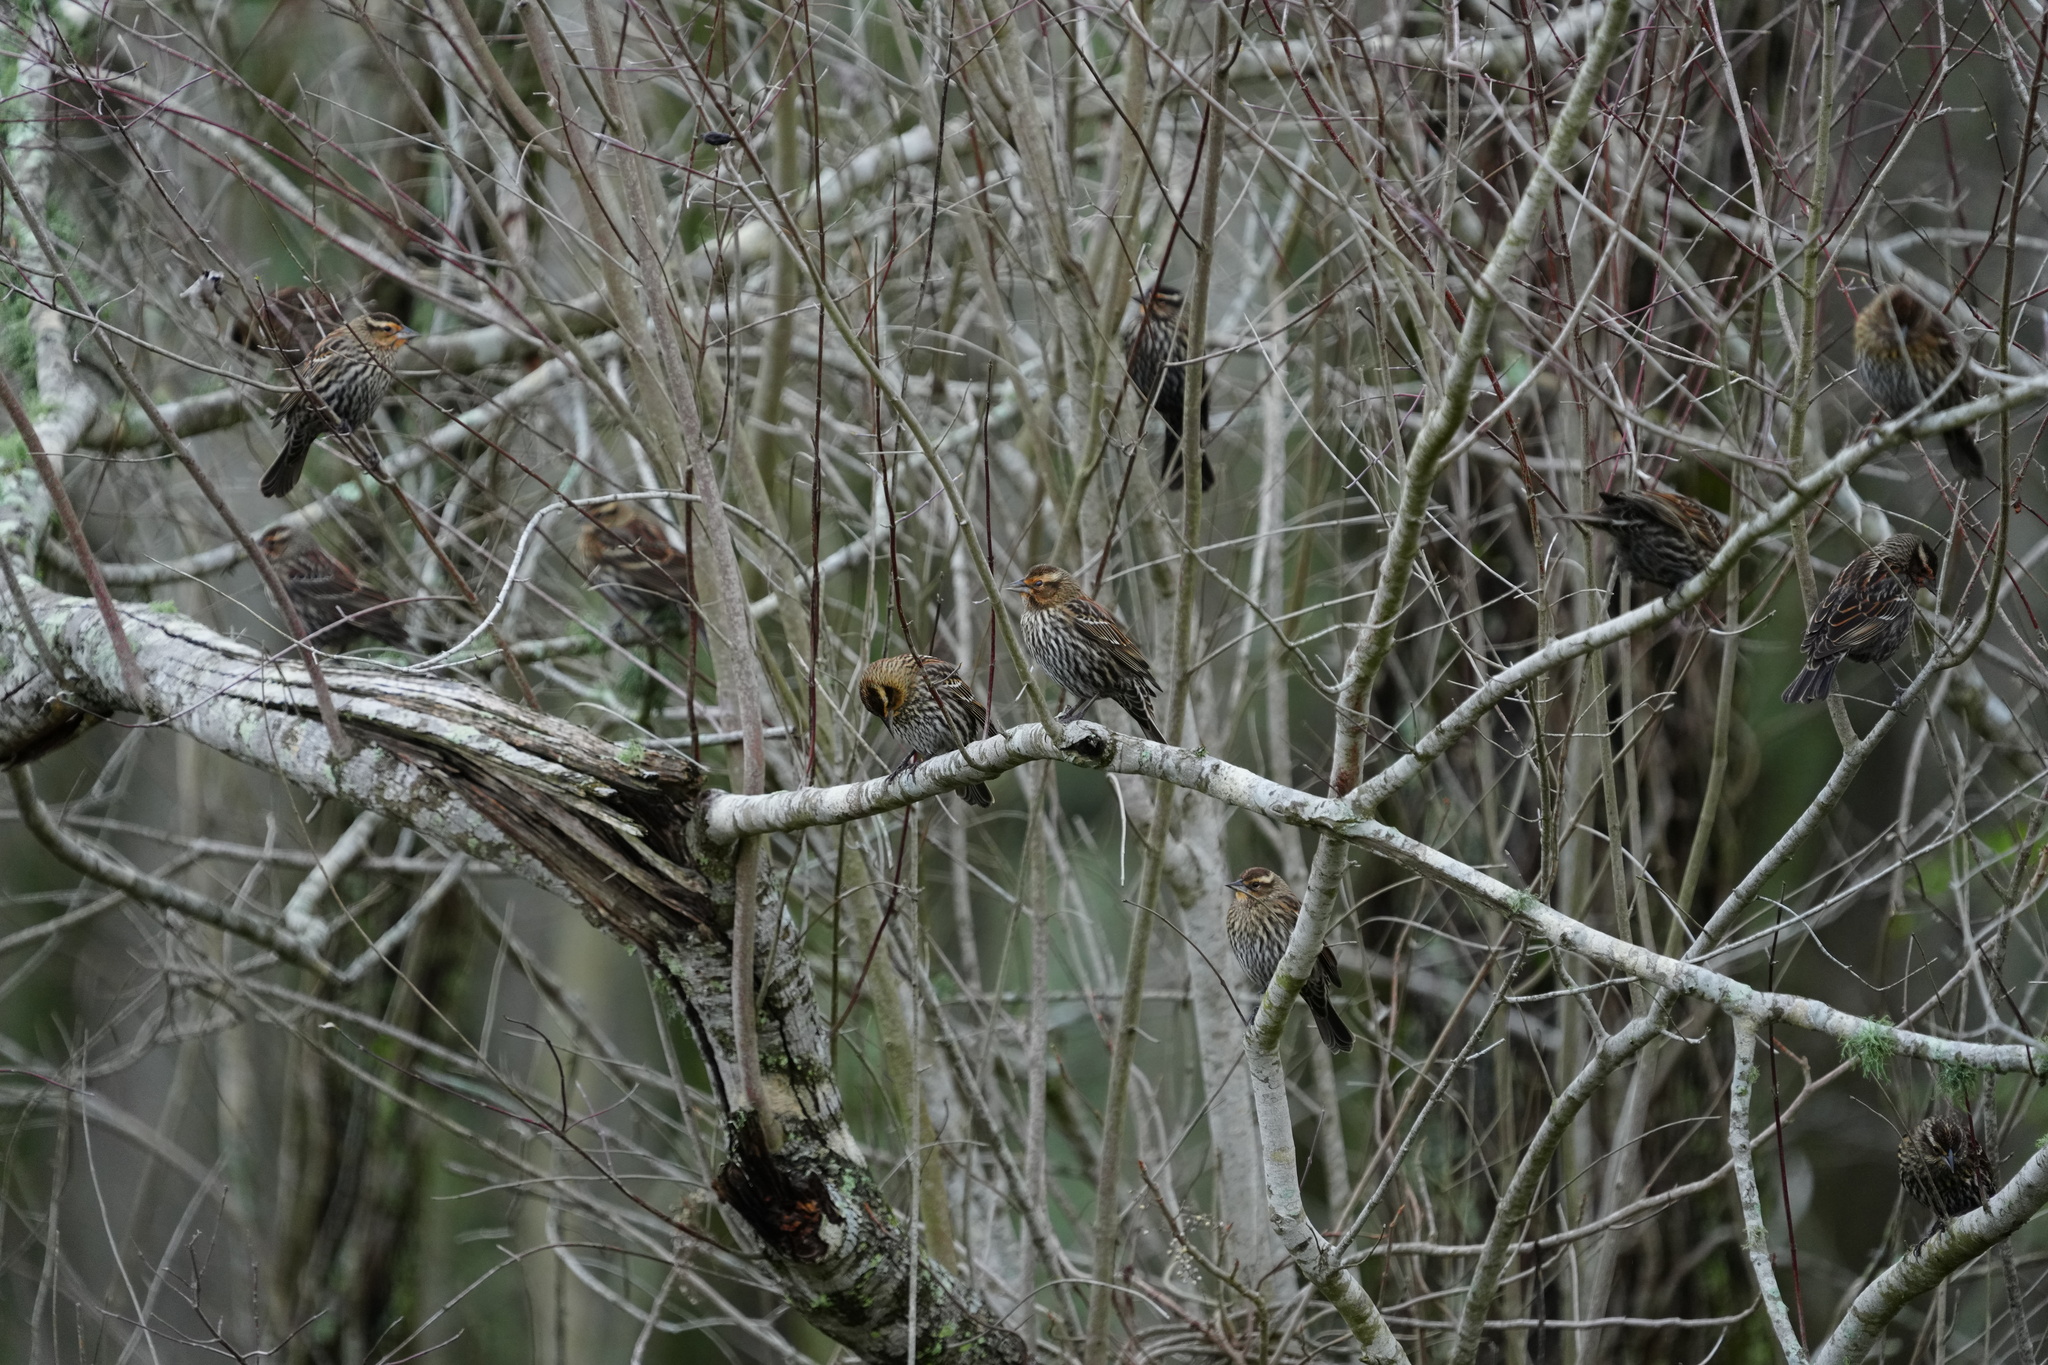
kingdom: Animalia
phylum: Chordata
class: Aves
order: Passeriformes
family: Icteridae
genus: Agelaius
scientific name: Agelaius phoeniceus
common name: Red-winged blackbird
